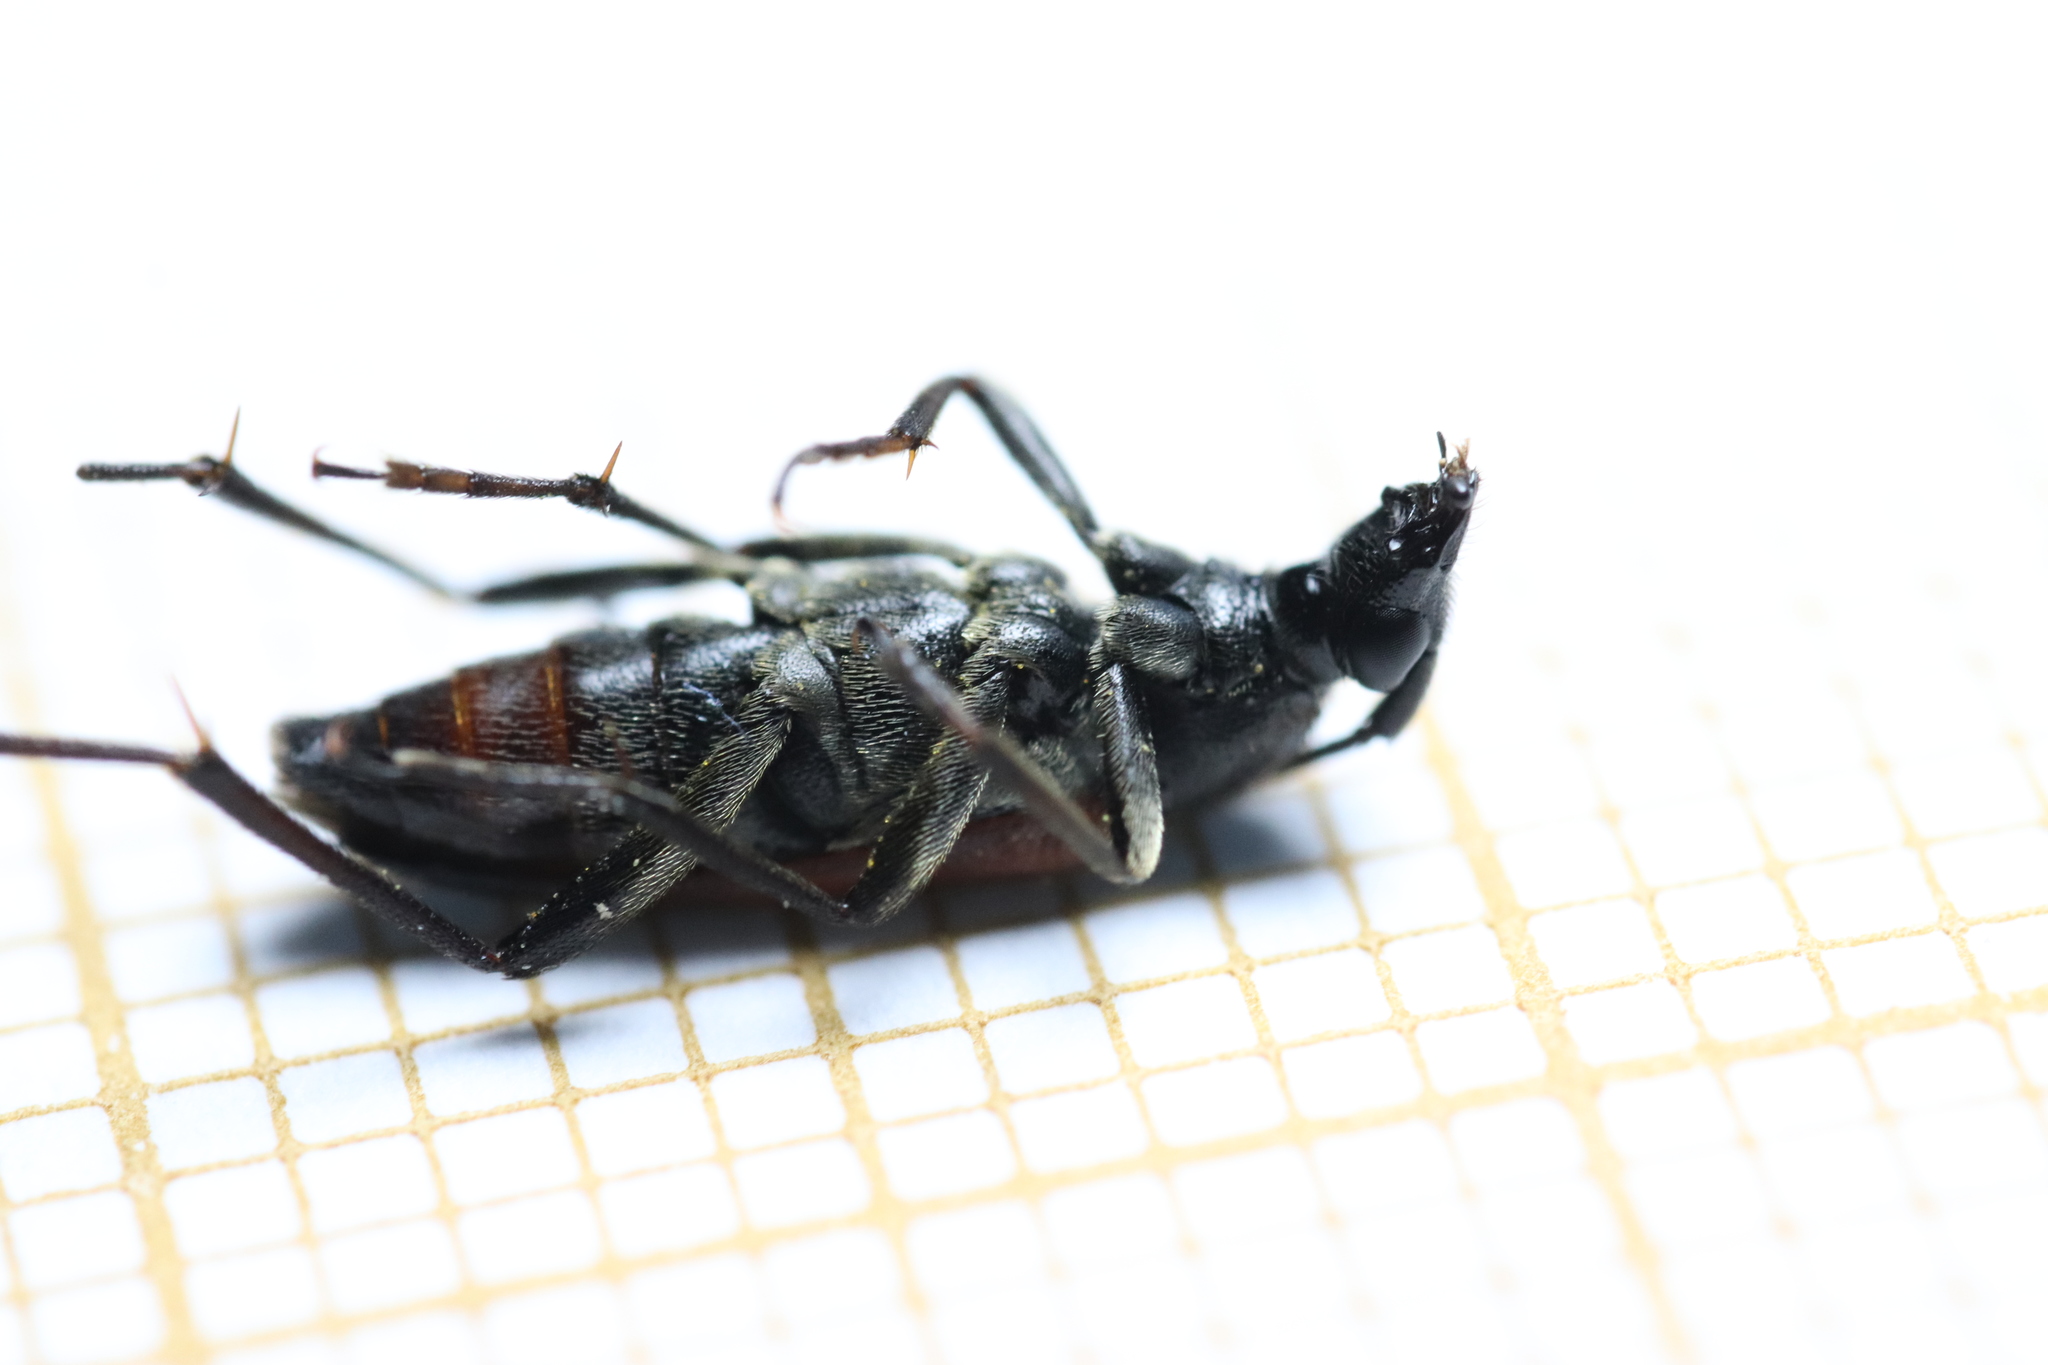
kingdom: Animalia
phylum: Arthropoda
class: Insecta
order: Coleoptera
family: Cerambycidae
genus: Stenurella
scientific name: Stenurella bifasciata
